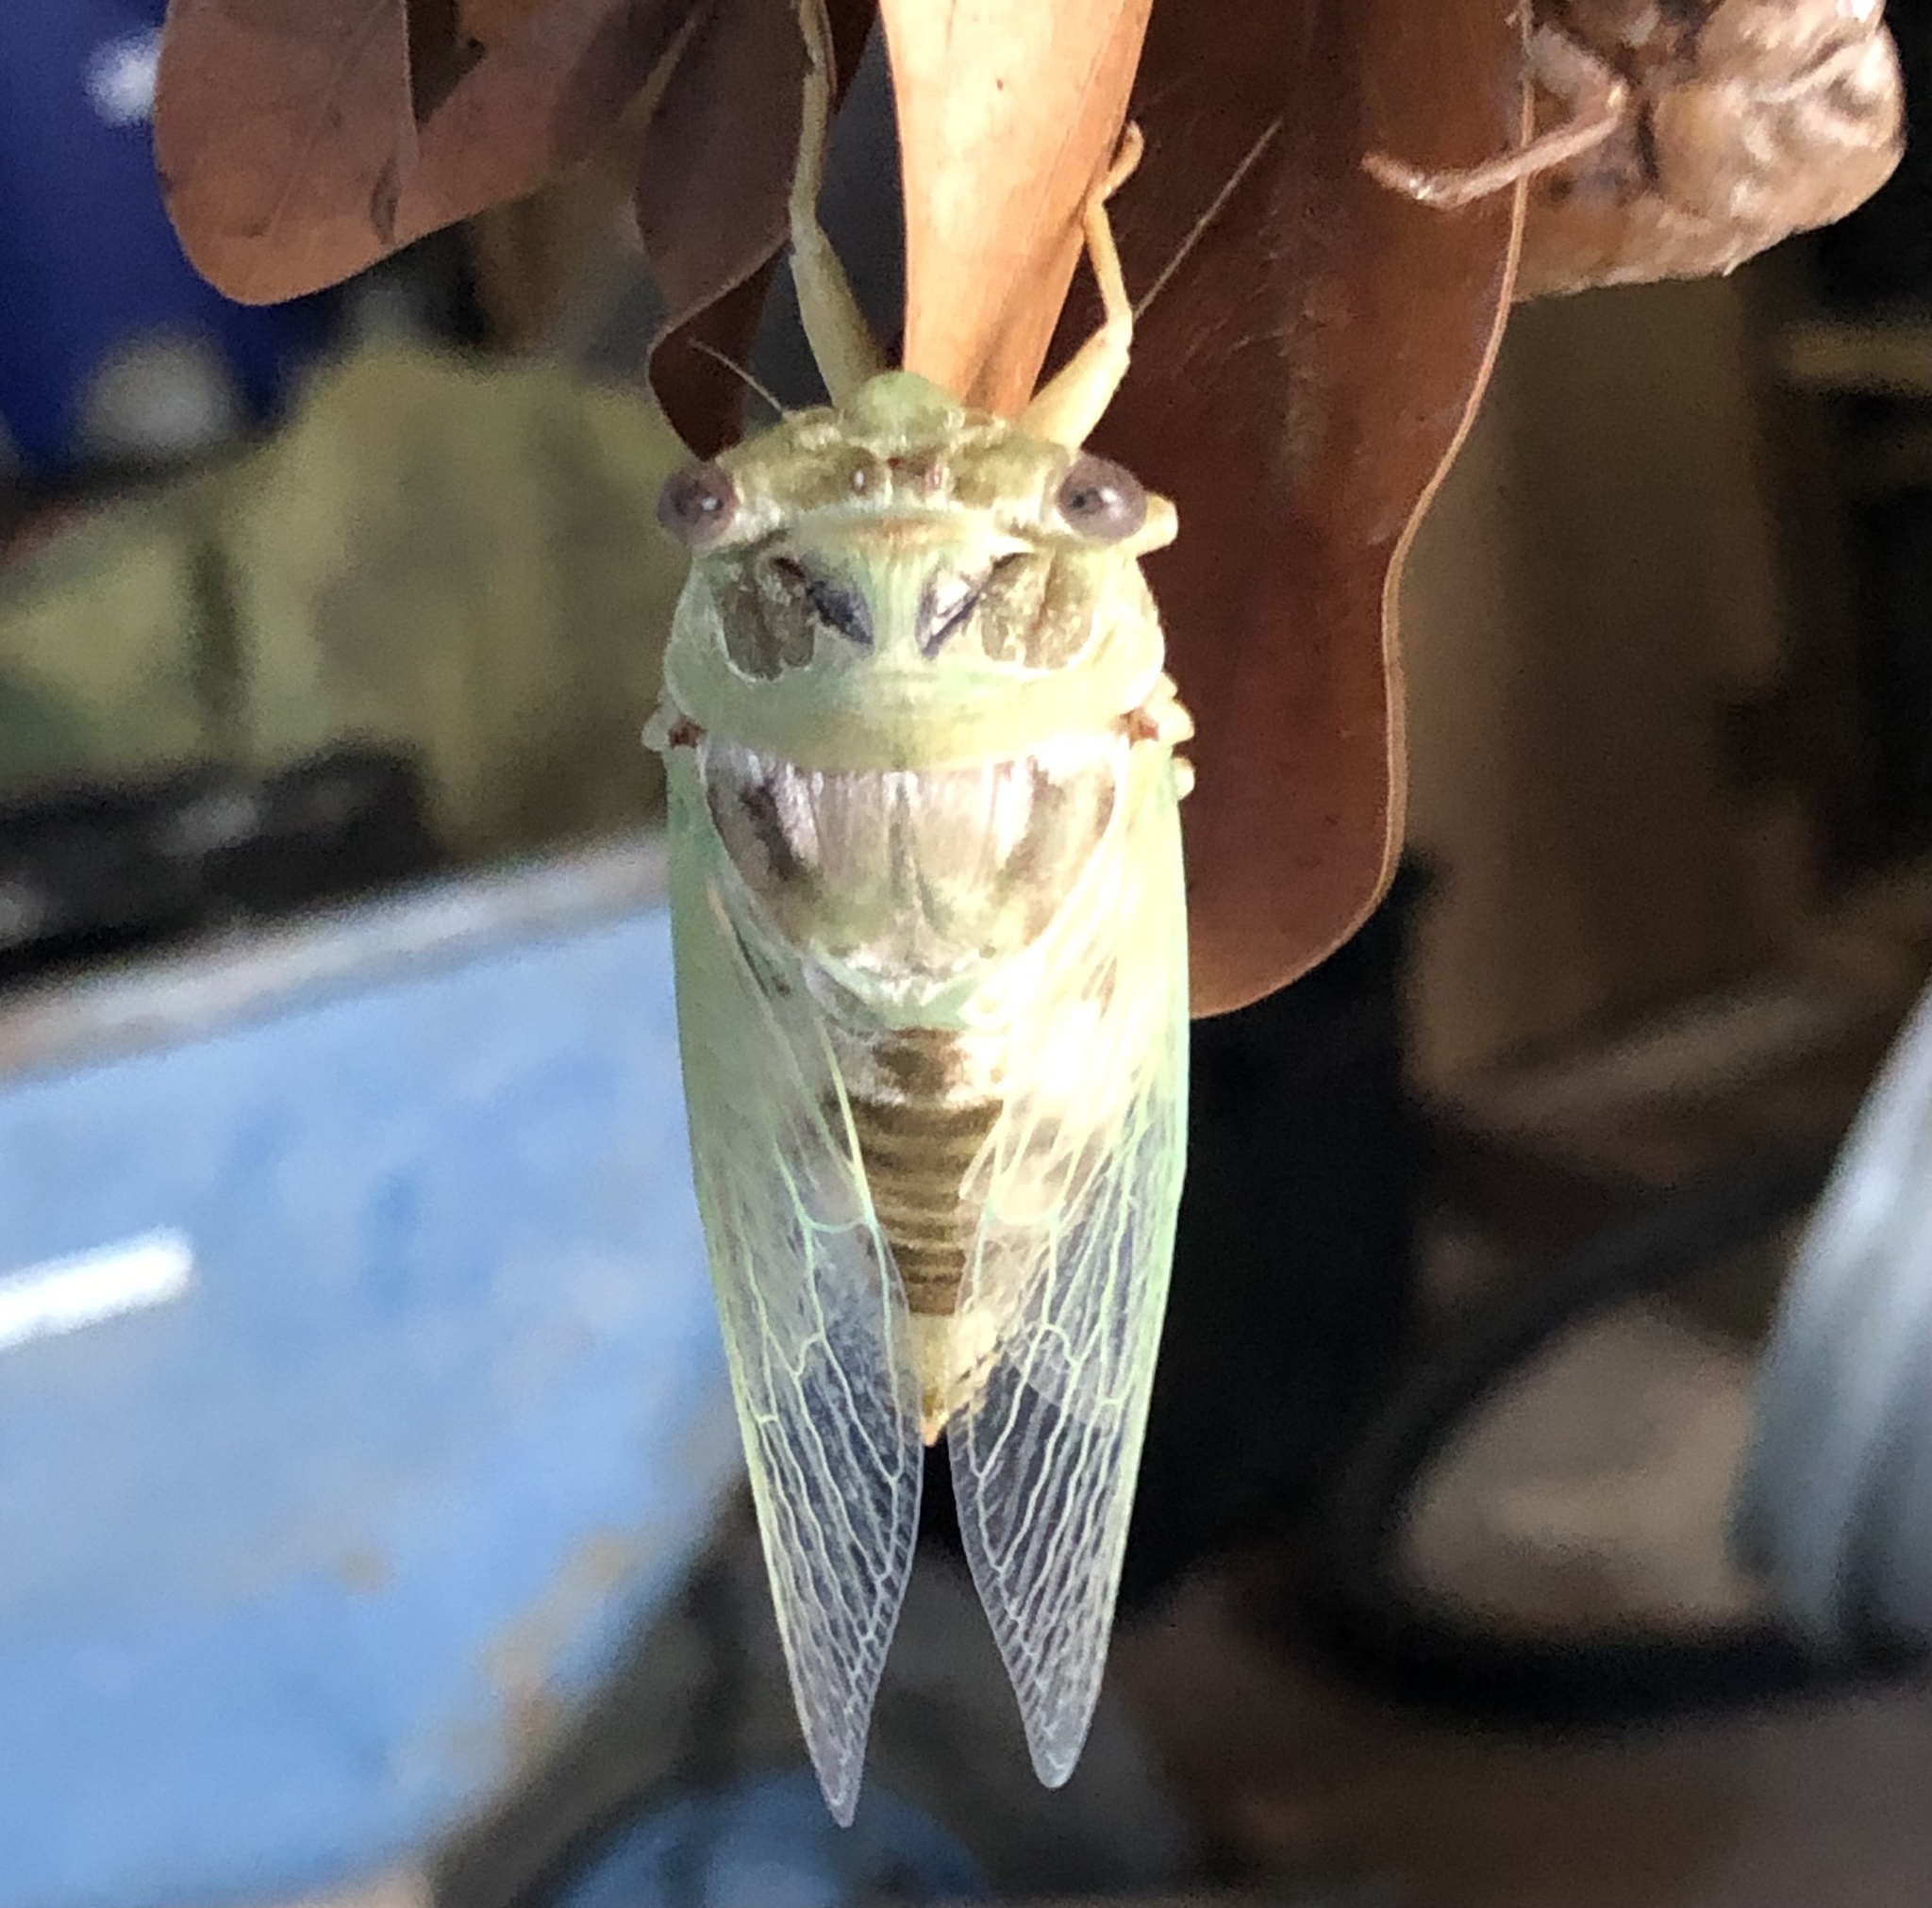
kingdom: Animalia
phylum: Arthropoda
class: Insecta
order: Hemiptera
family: Cicadidae
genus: Megatibicen
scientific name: Megatibicen resh
